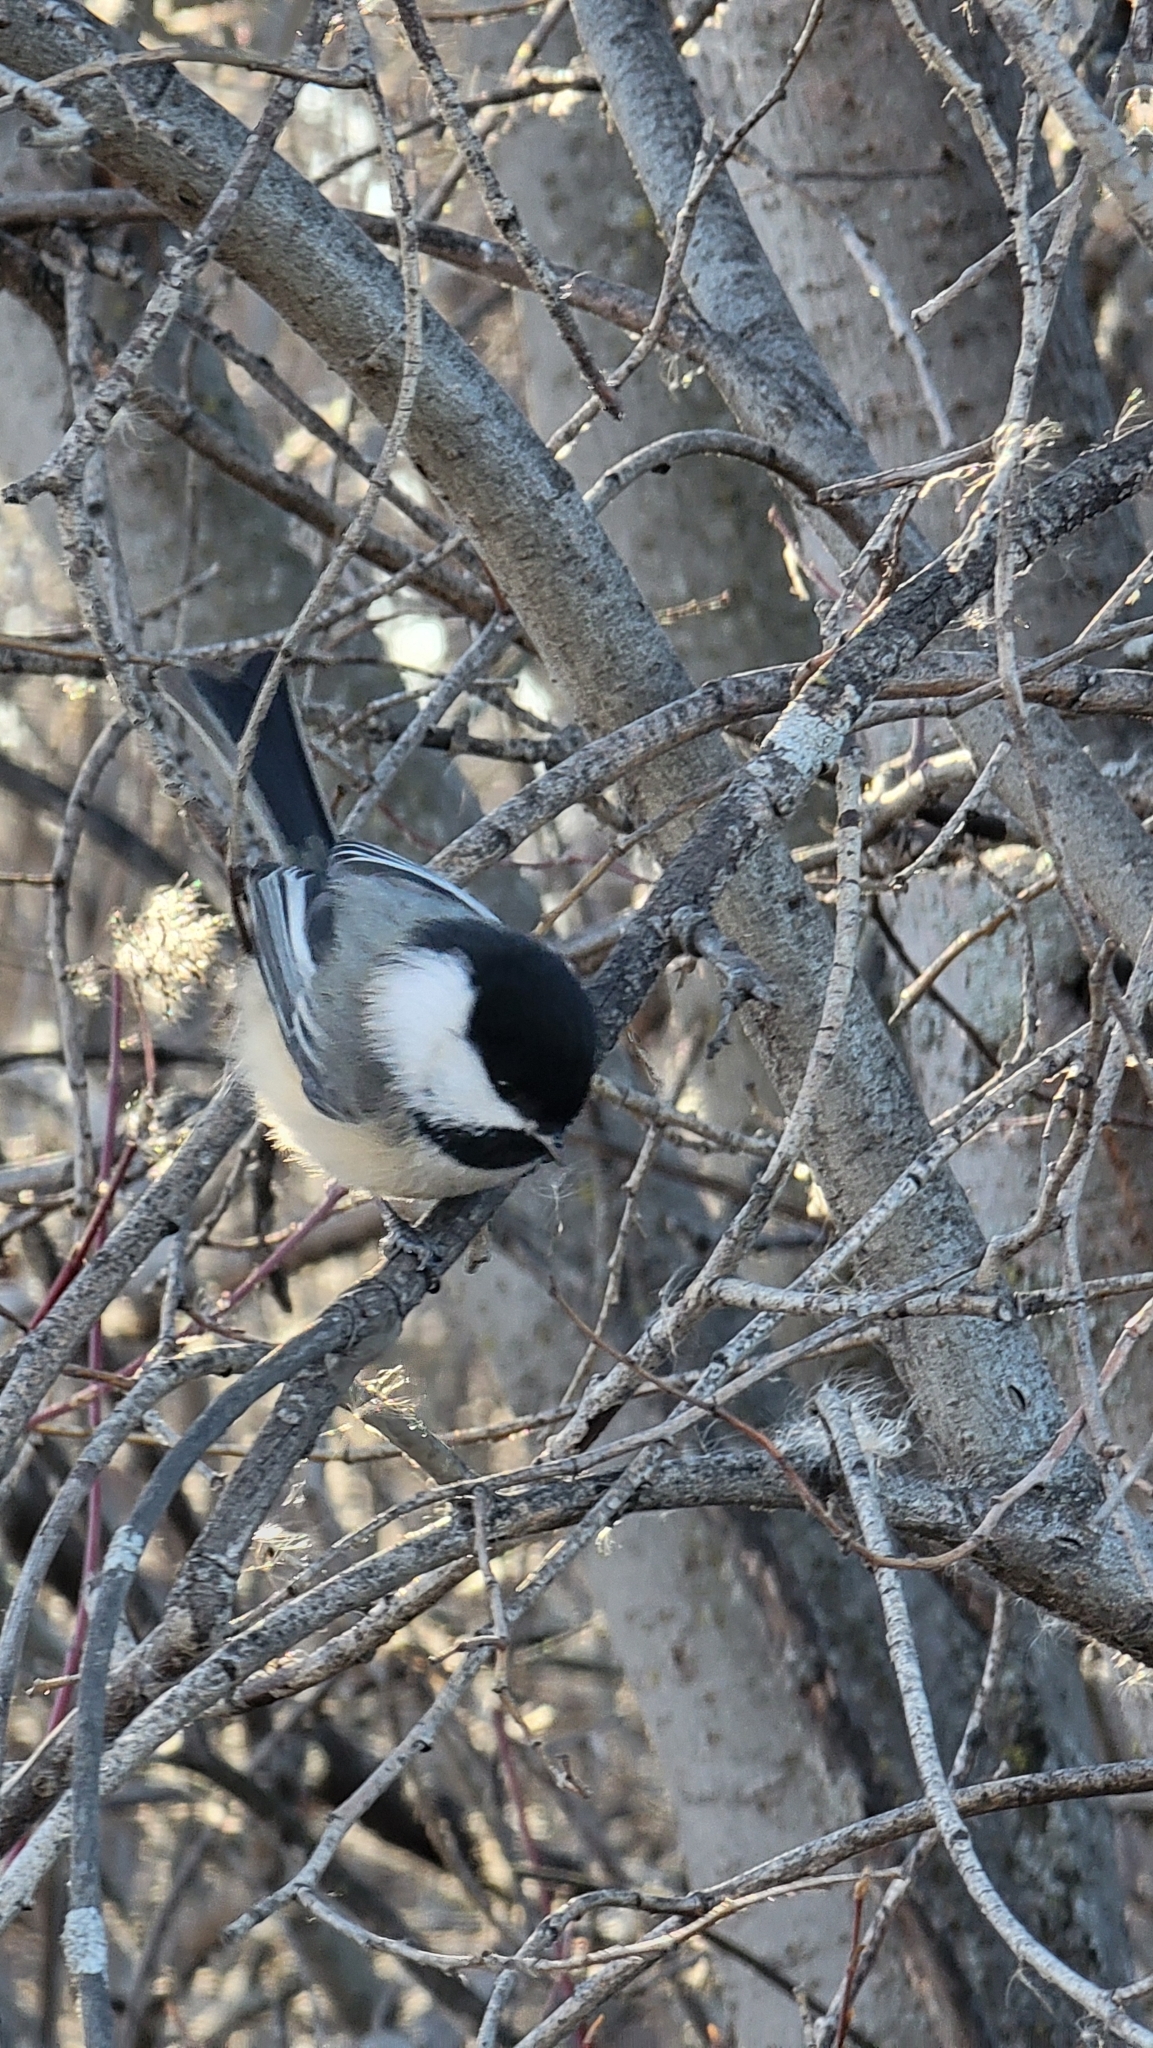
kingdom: Animalia
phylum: Chordata
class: Aves
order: Passeriformes
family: Paridae
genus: Poecile
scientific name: Poecile atricapillus
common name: Black-capped chickadee
